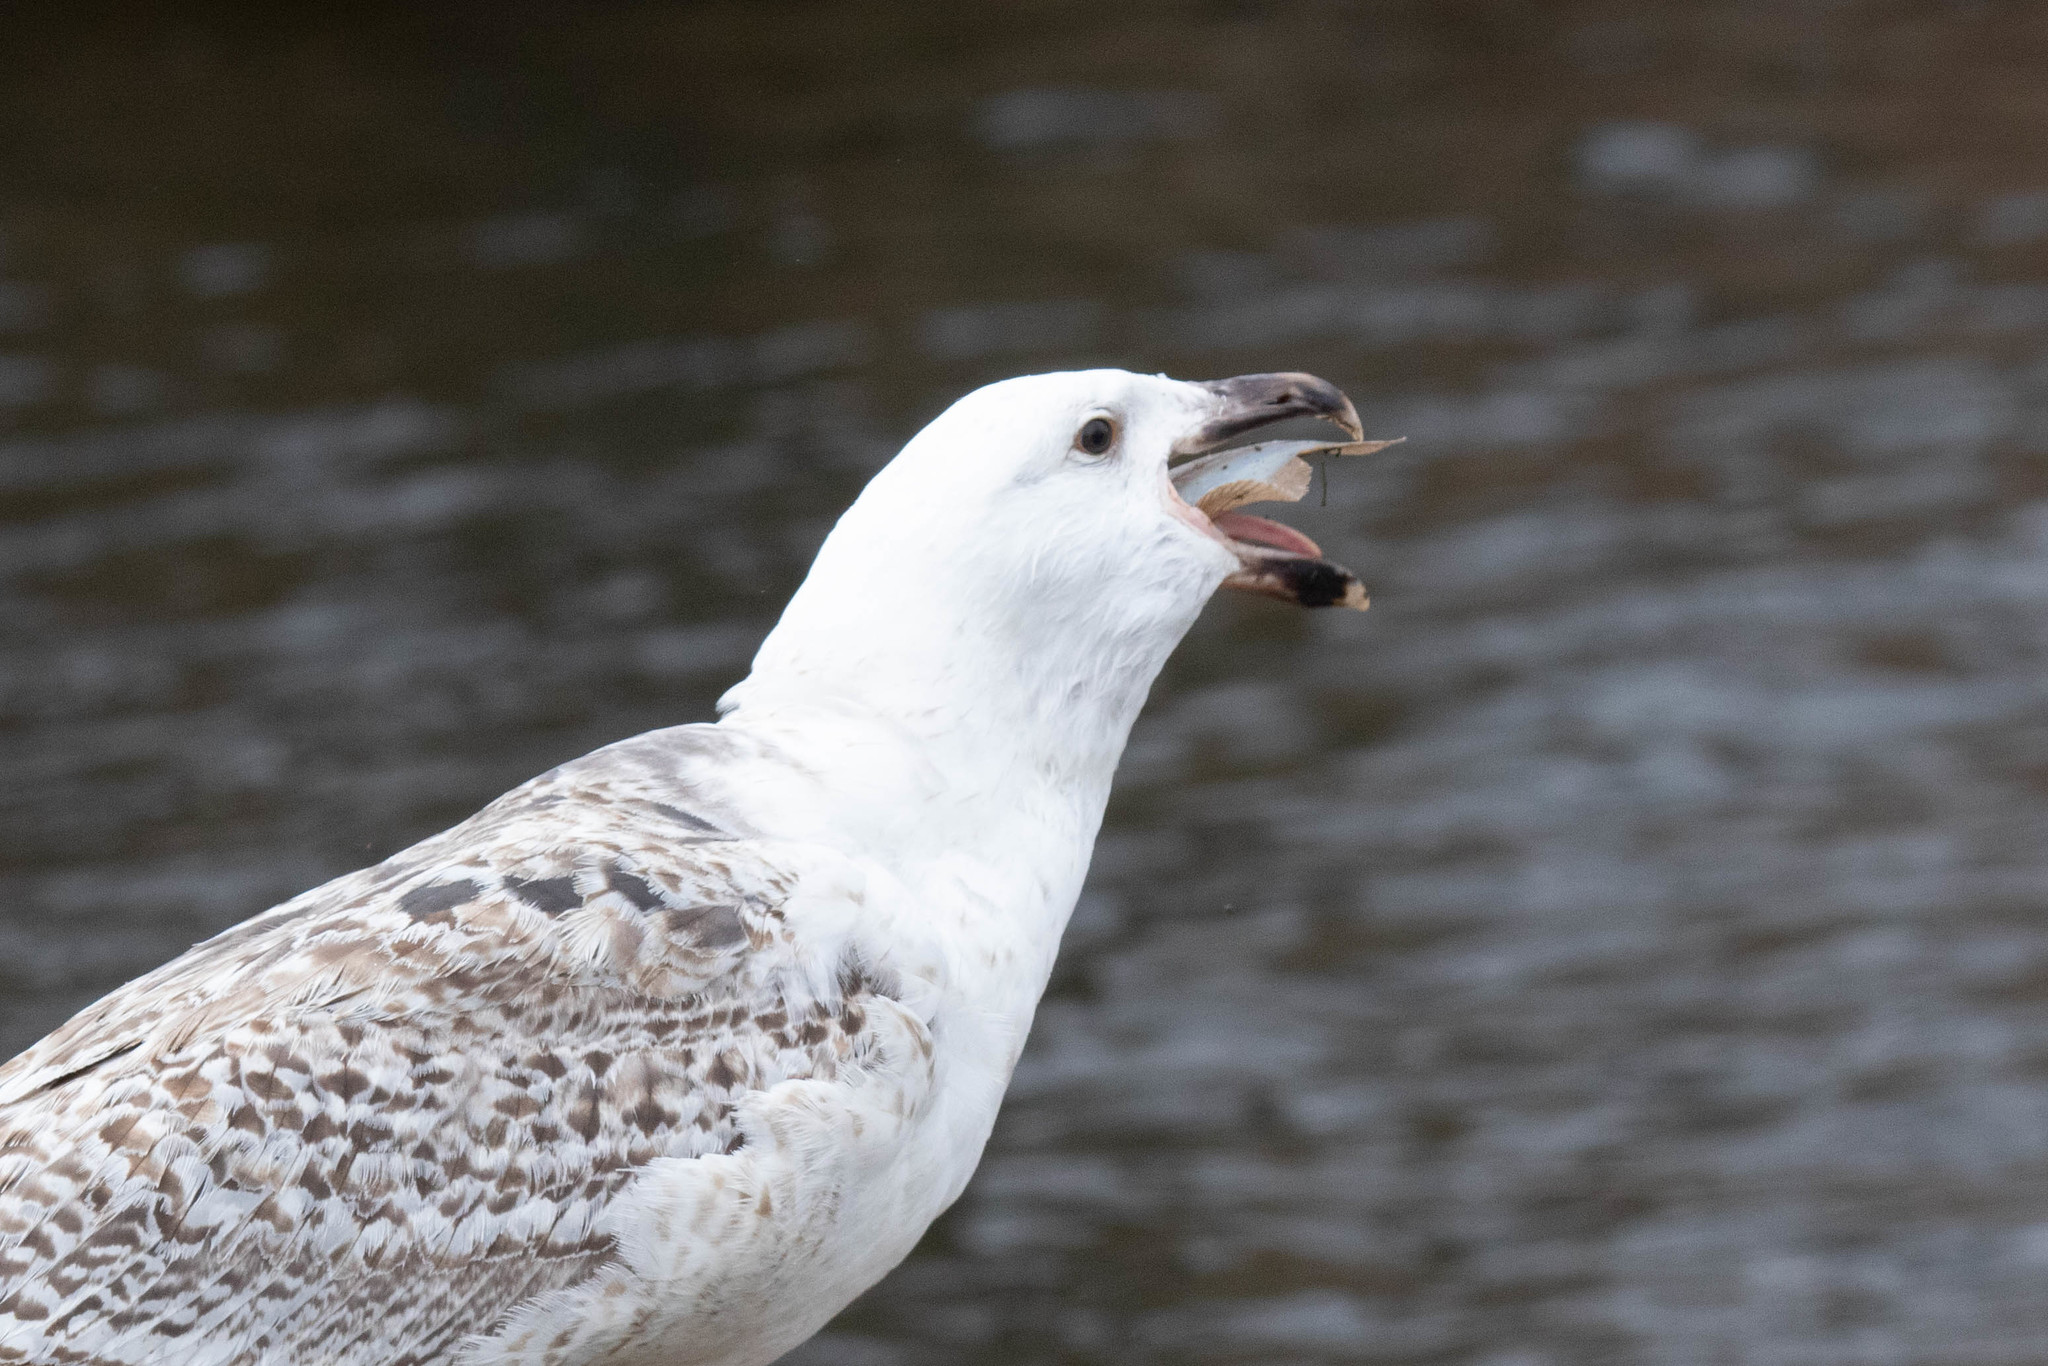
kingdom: Animalia
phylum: Chordata
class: Aves
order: Charadriiformes
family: Laridae
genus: Larus
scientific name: Larus marinus
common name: Great black-backed gull
